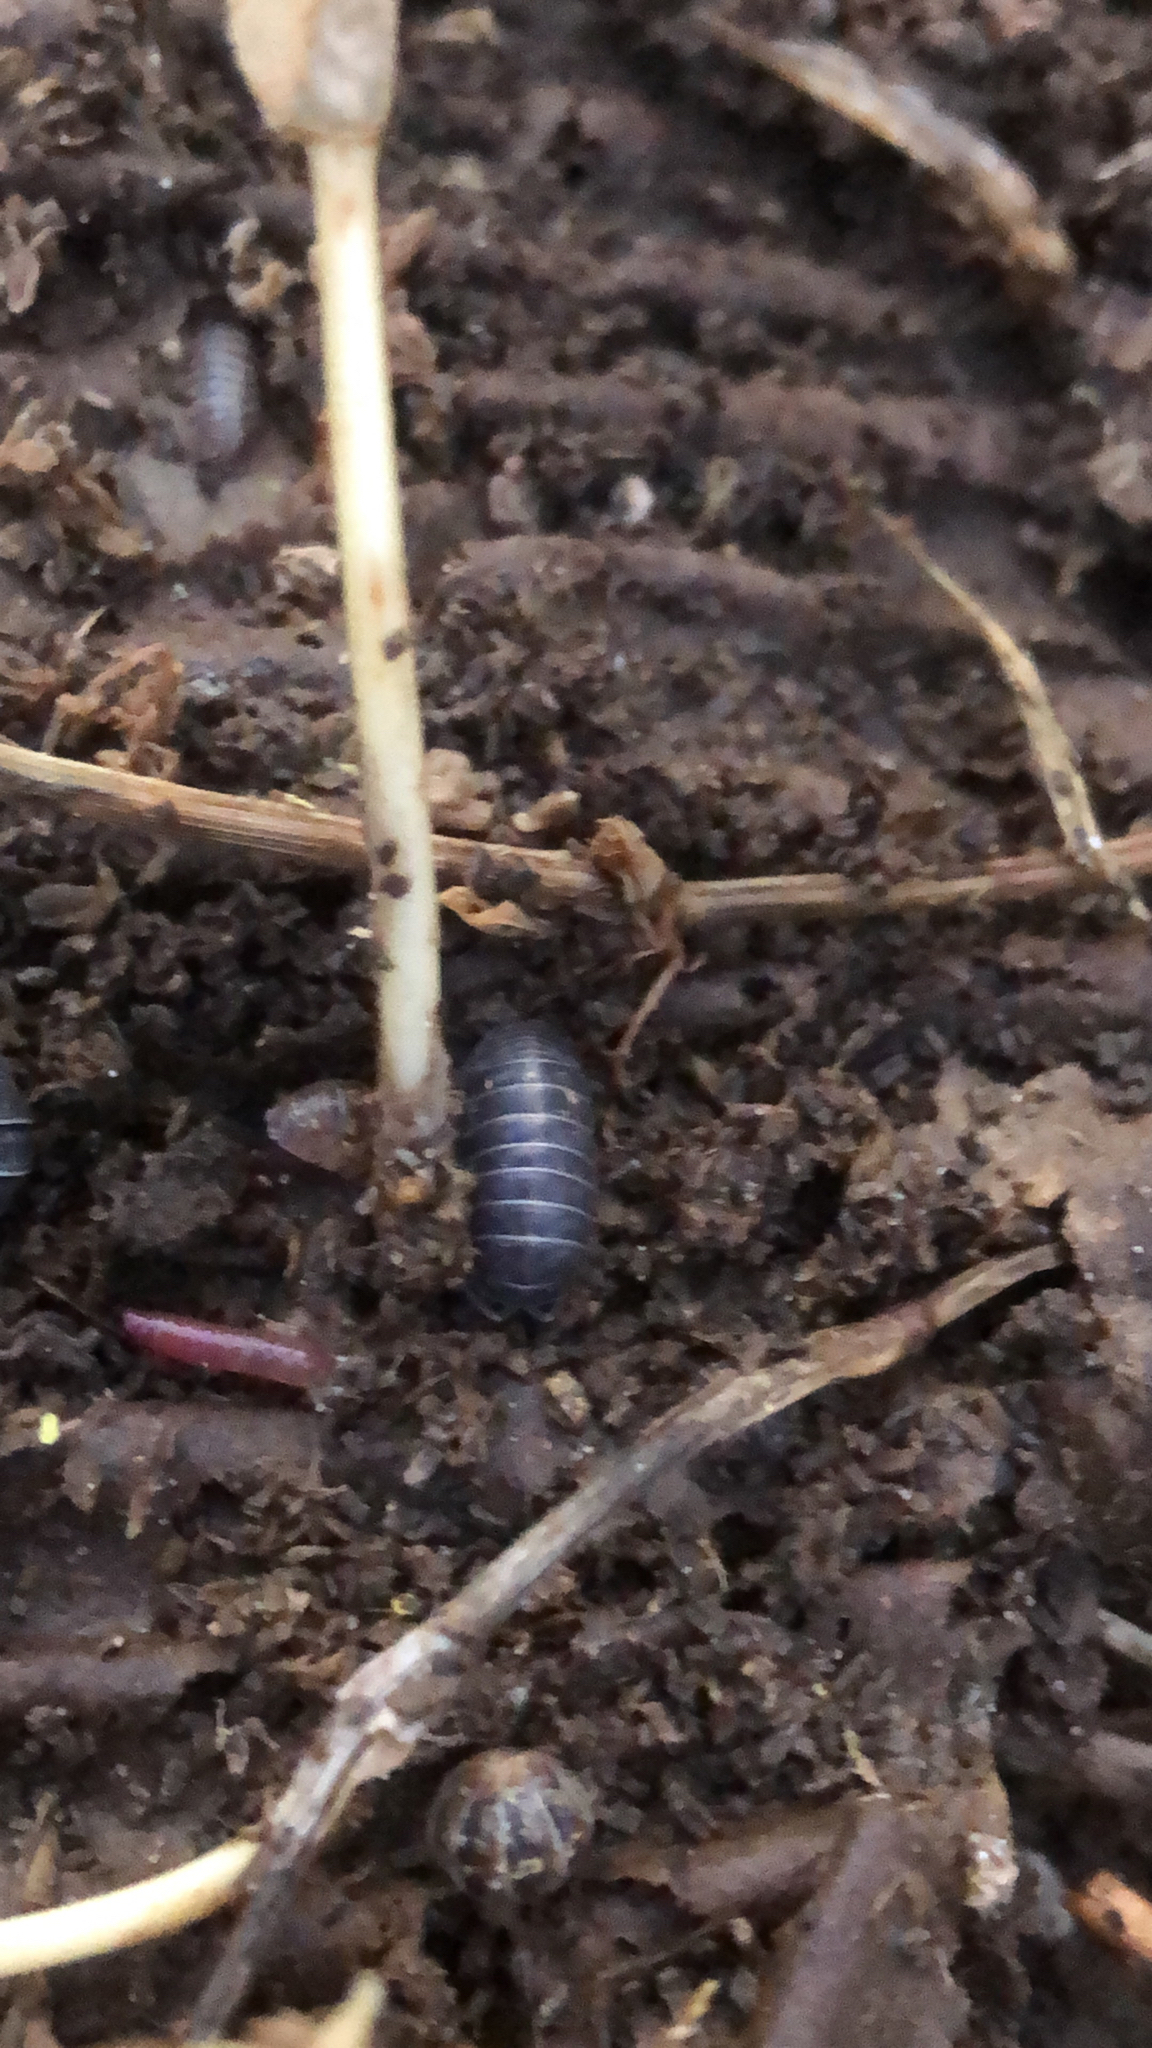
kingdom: Animalia
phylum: Arthropoda
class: Malacostraca
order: Isopoda
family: Armadillidiidae
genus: Armadillidium
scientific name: Armadillidium vulgare
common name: Common pill woodlouse
